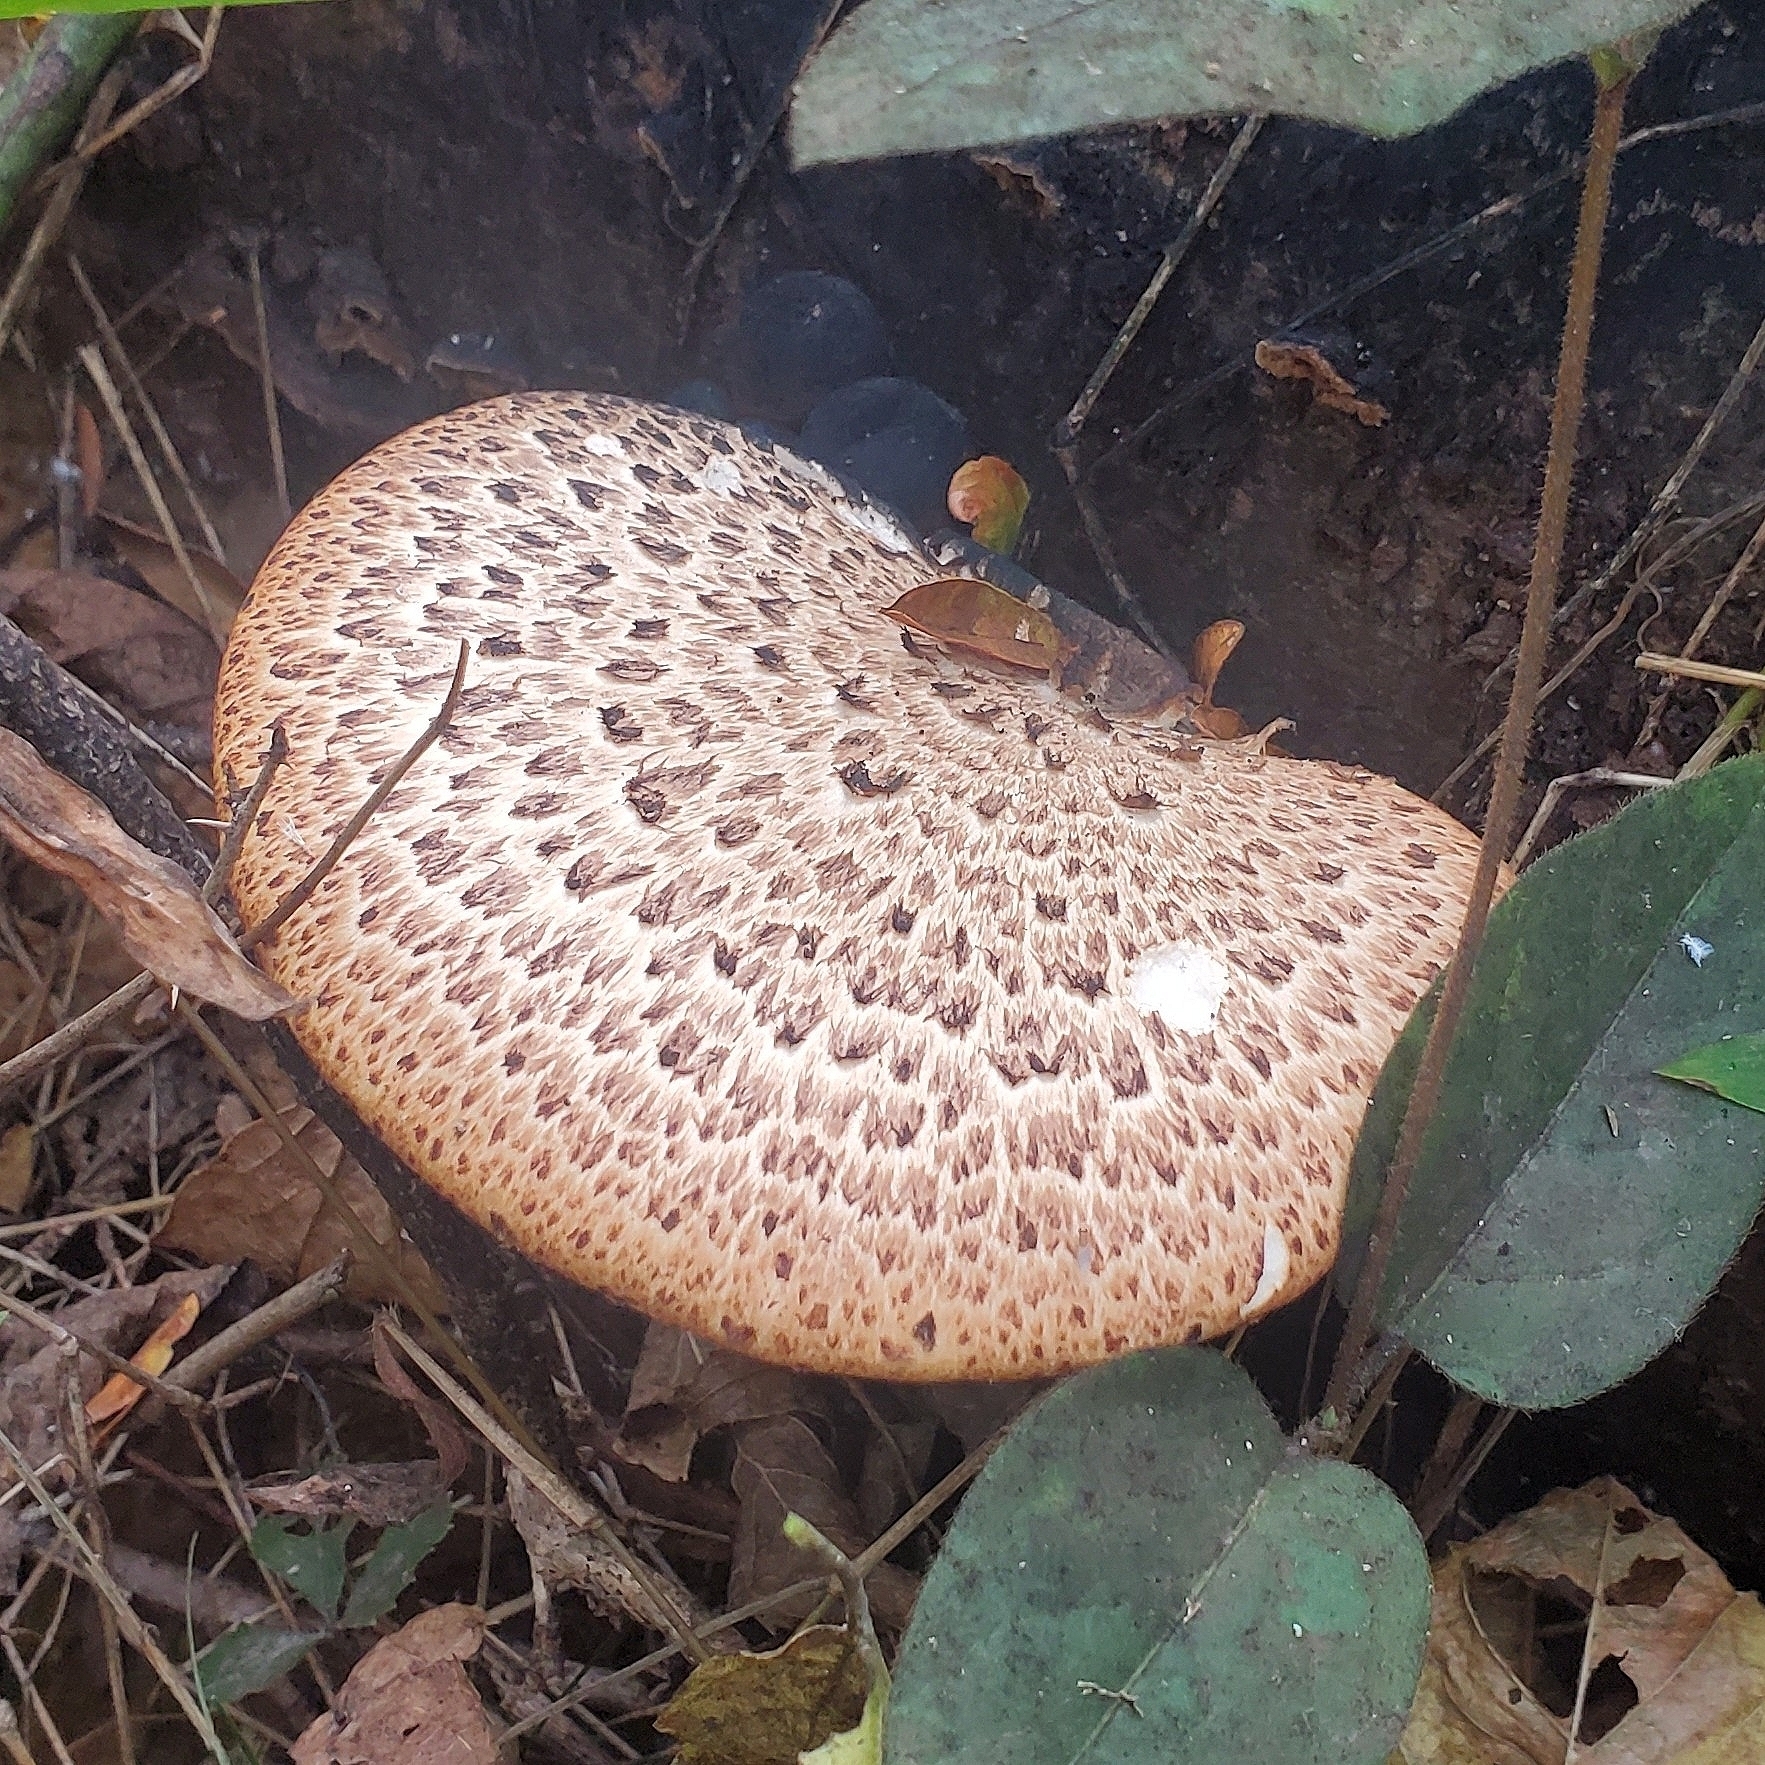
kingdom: Fungi
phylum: Basidiomycota
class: Agaricomycetes
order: Polyporales
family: Polyporaceae
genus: Cerioporus
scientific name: Cerioporus squamosus
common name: Dryad's saddle
